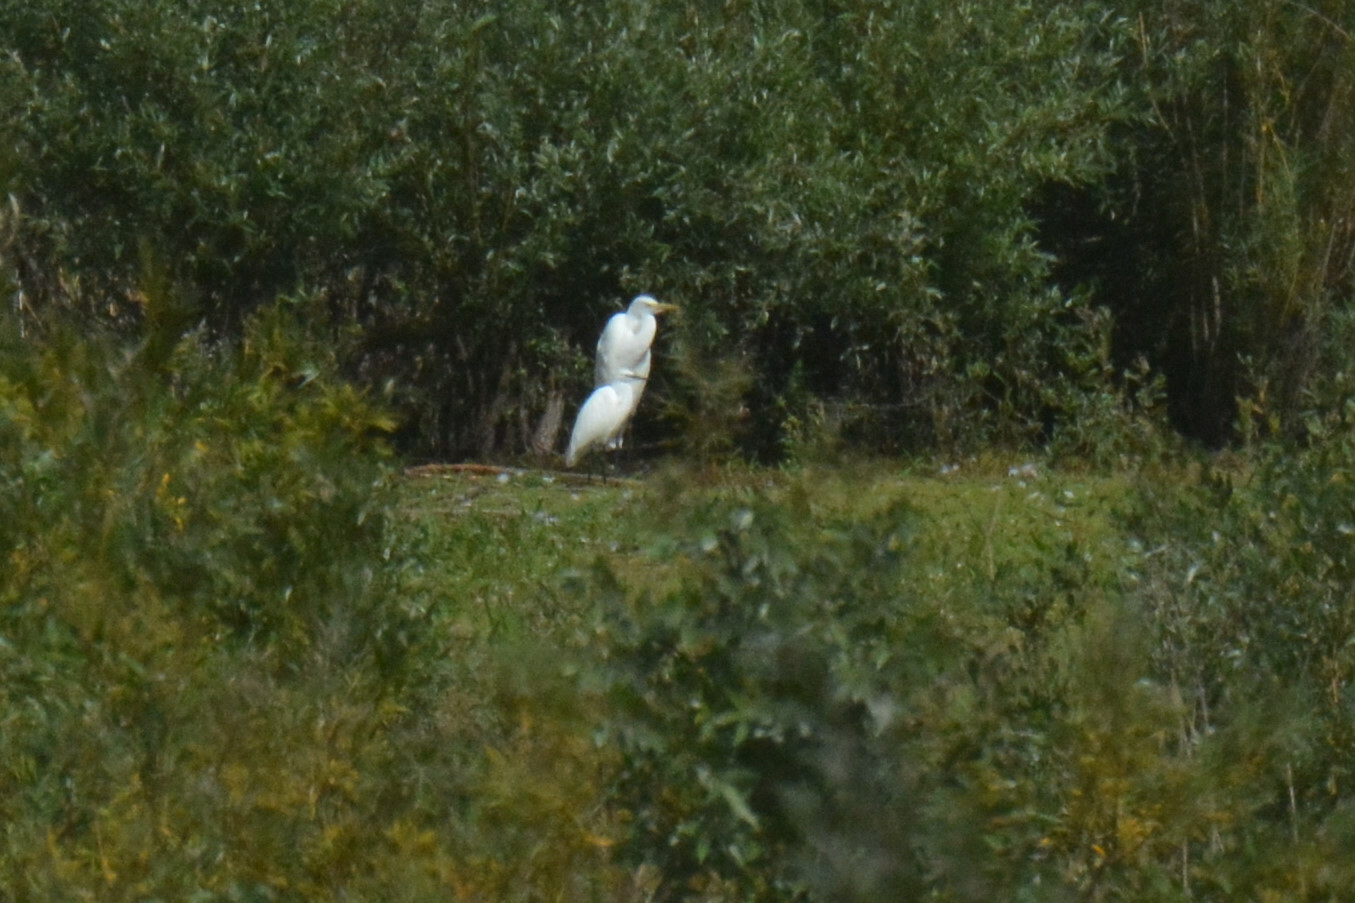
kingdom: Animalia
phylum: Chordata
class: Aves
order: Pelecaniformes
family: Ardeidae
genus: Egretta
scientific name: Egretta garzetta
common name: Little egret
